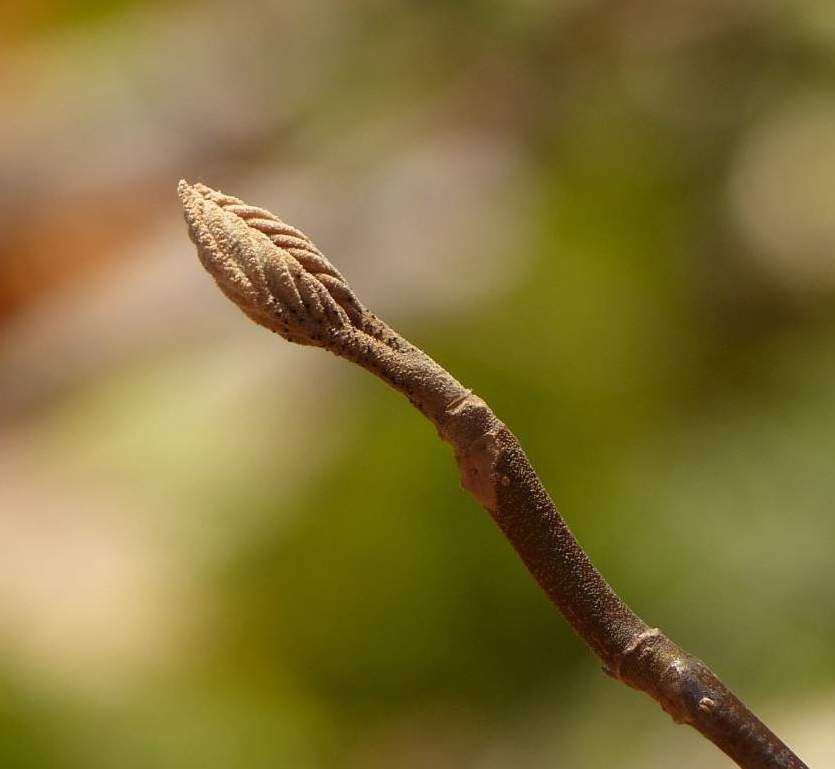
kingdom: Plantae
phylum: Tracheophyta
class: Magnoliopsida
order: Dipsacales
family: Viburnaceae
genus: Viburnum
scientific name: Viburnum lantanoides
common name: Hobblebush
